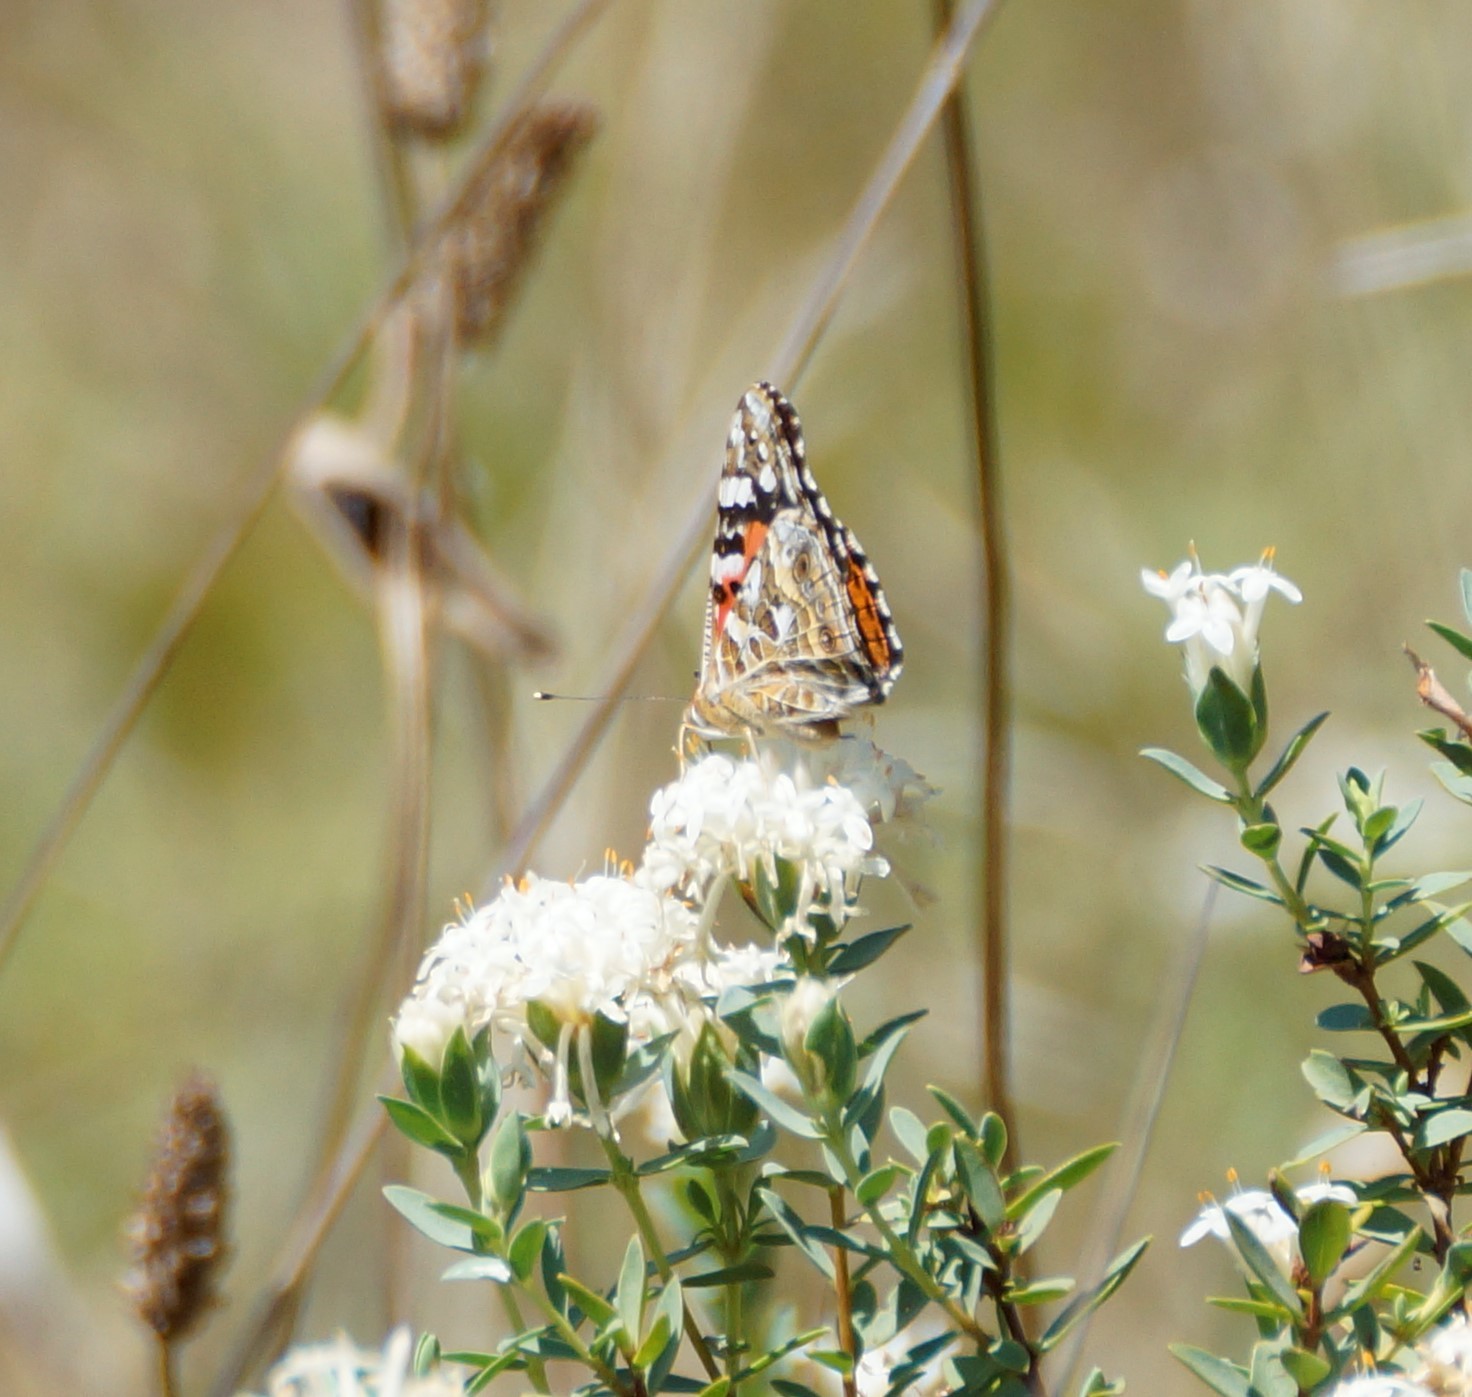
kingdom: Animalia
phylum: Arthropoda
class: Insecta
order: Lepidoptera
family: Nymphalidae
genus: Vanessa
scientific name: Vanessa kershawi
